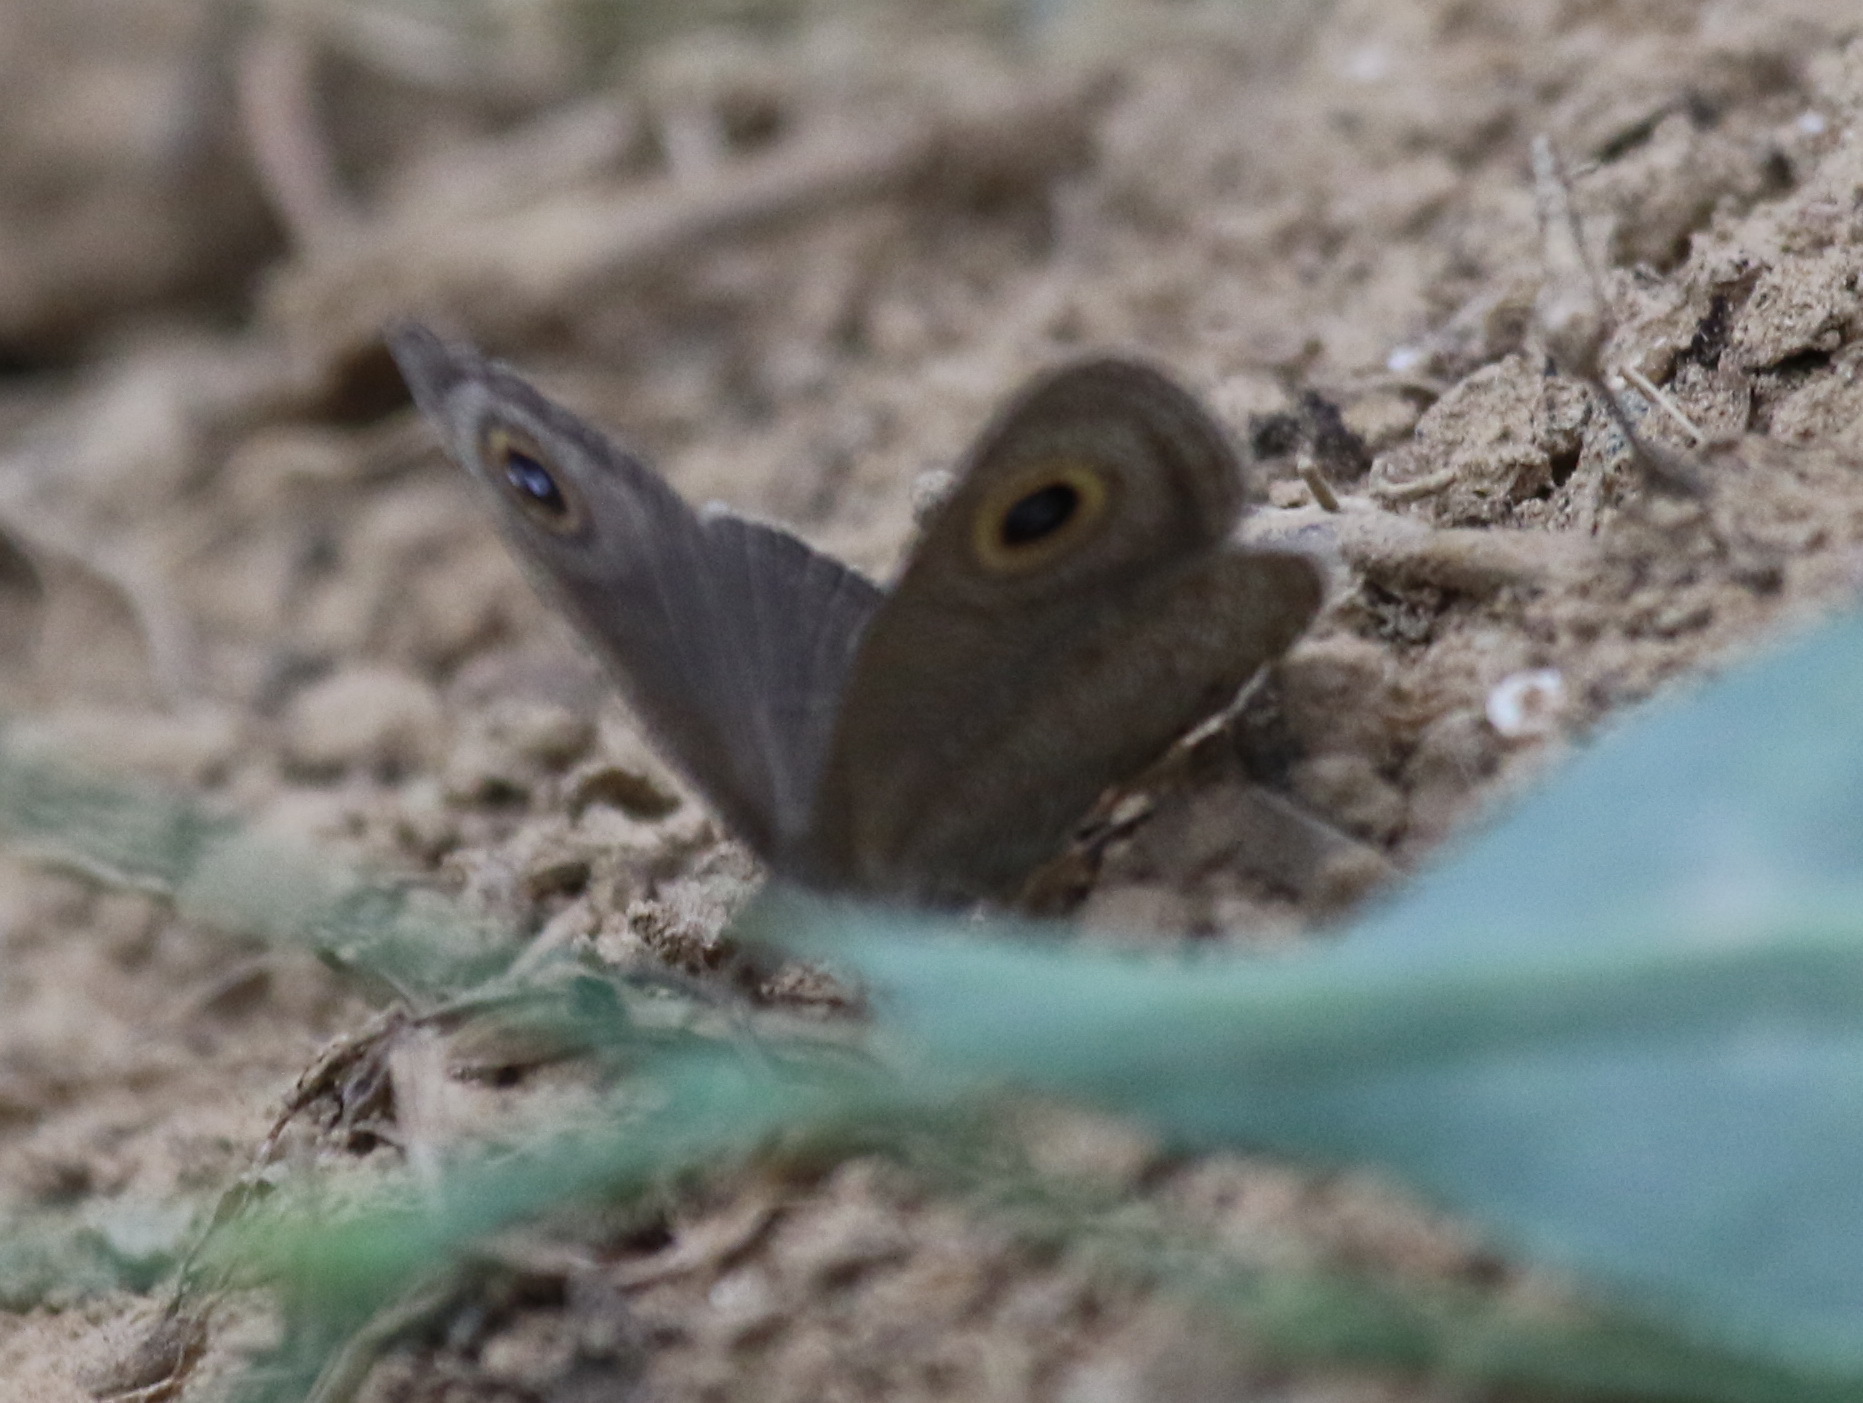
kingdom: Animalia
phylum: Arthropoda
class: Insecta
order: Lepidoptera
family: Nymphalidae
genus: Ypthima
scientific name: Ypthima asterope
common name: African ringlet
